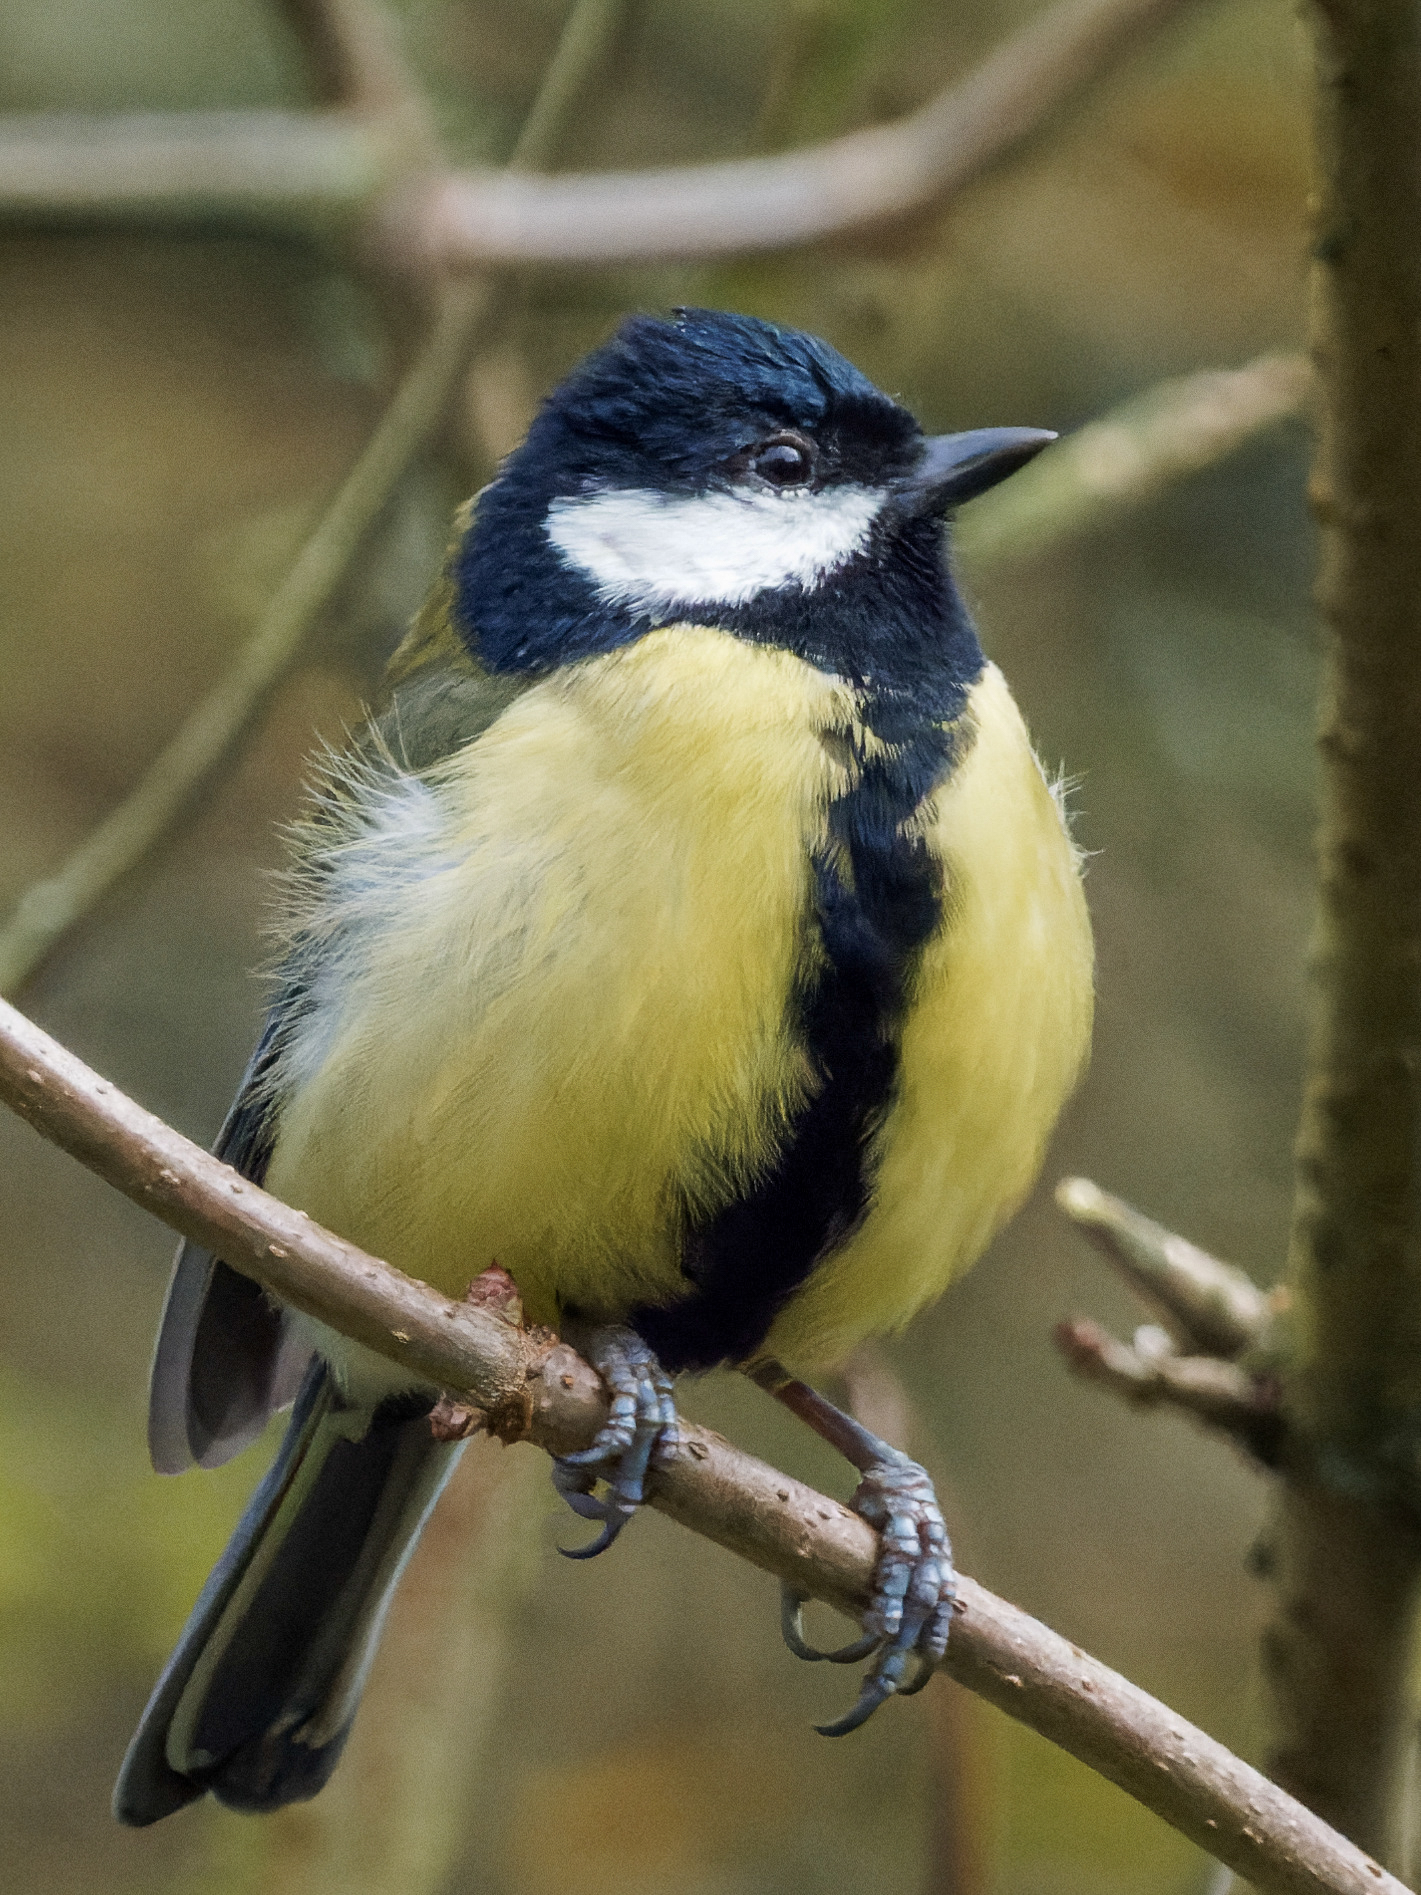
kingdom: Animalia
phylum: Chordata
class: Aves
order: Passeriformes
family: Paridae
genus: Parus
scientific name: Parus major
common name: Great tit
